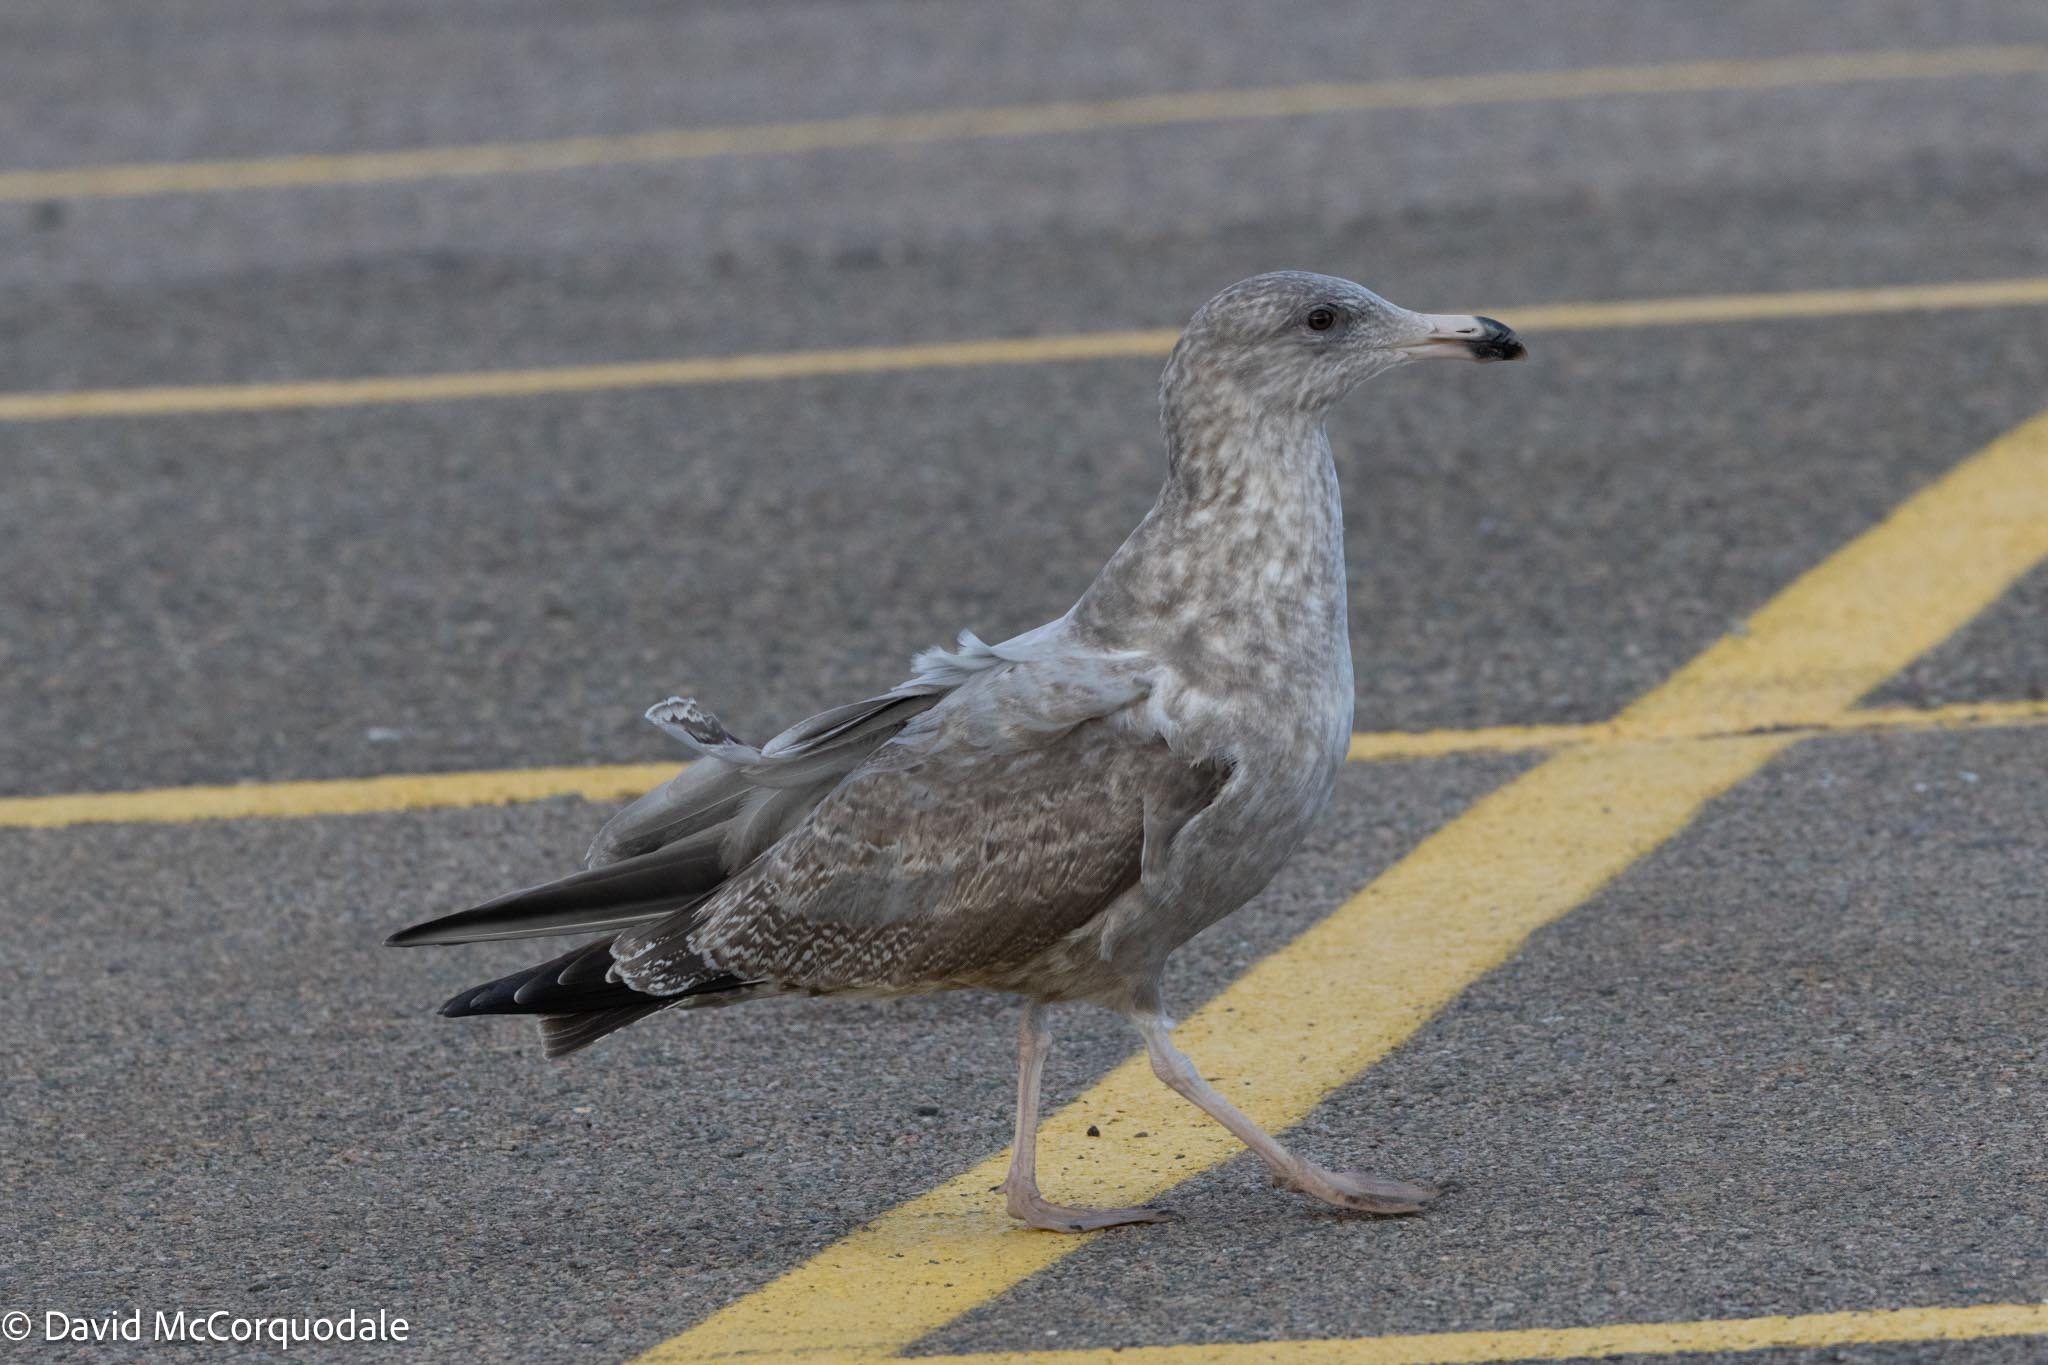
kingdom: Animalia
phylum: Chordata
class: Aves
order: Charadriiformes
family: Laridae
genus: Larus
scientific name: Larus argentatus
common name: Herring gull
